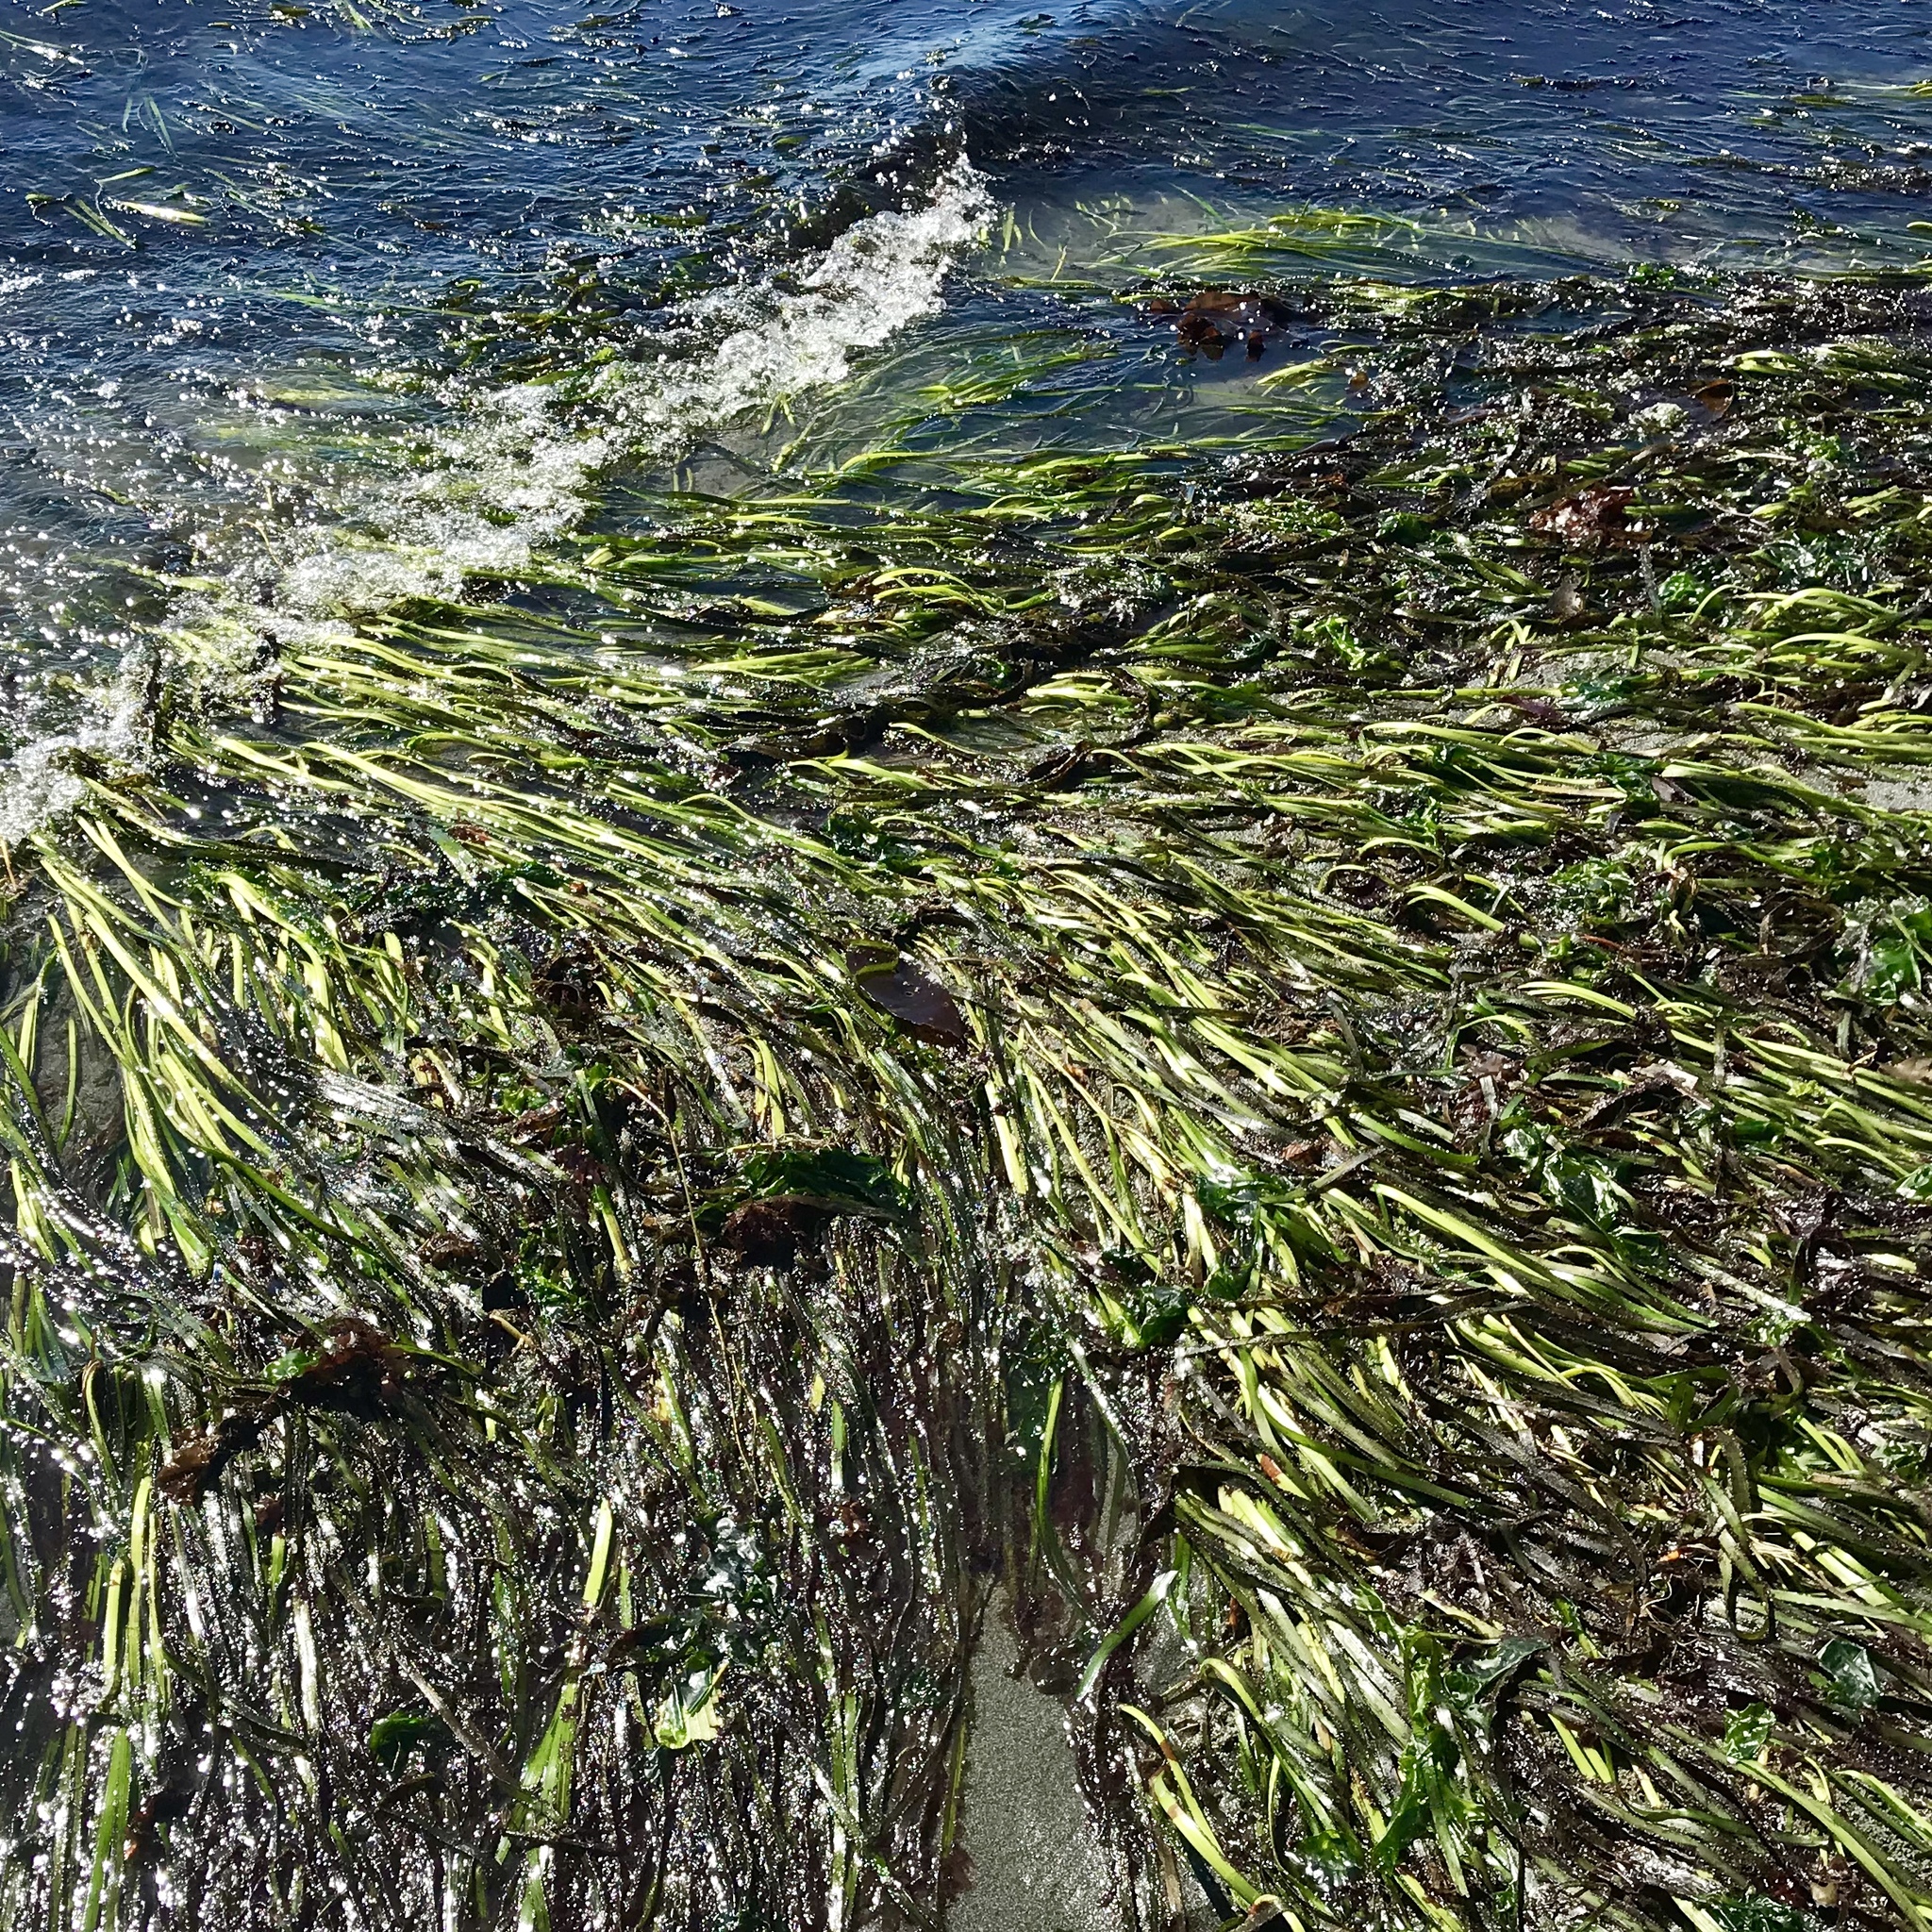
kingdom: Plantae
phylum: Tracheophyta
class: Liliopsida
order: Alismatales
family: Zosteraceae
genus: Zostera
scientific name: Zostera marina
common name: Eelgrass
